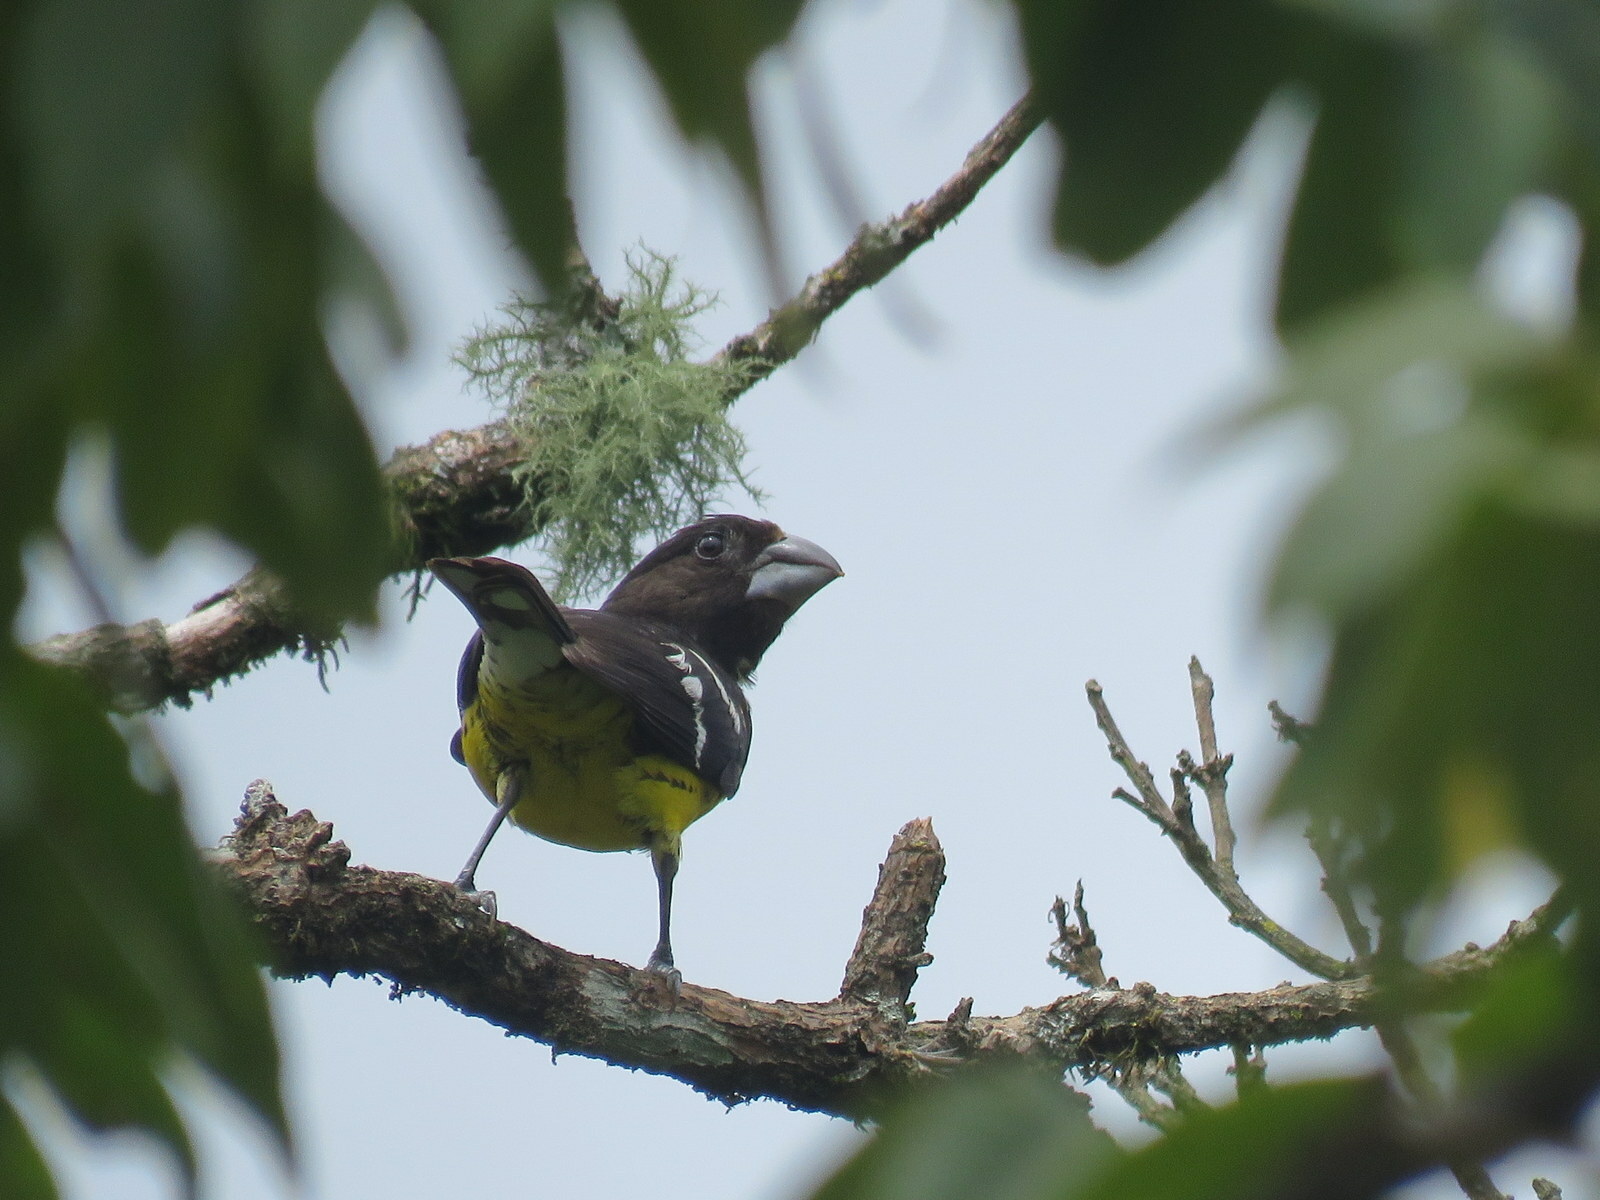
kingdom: Animalia
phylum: Chordata
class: Aves
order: Passeriformes
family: Cardinalidae
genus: Pheucticus
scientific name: Pheucticus aureoventris
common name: Black-backed grosbeak
